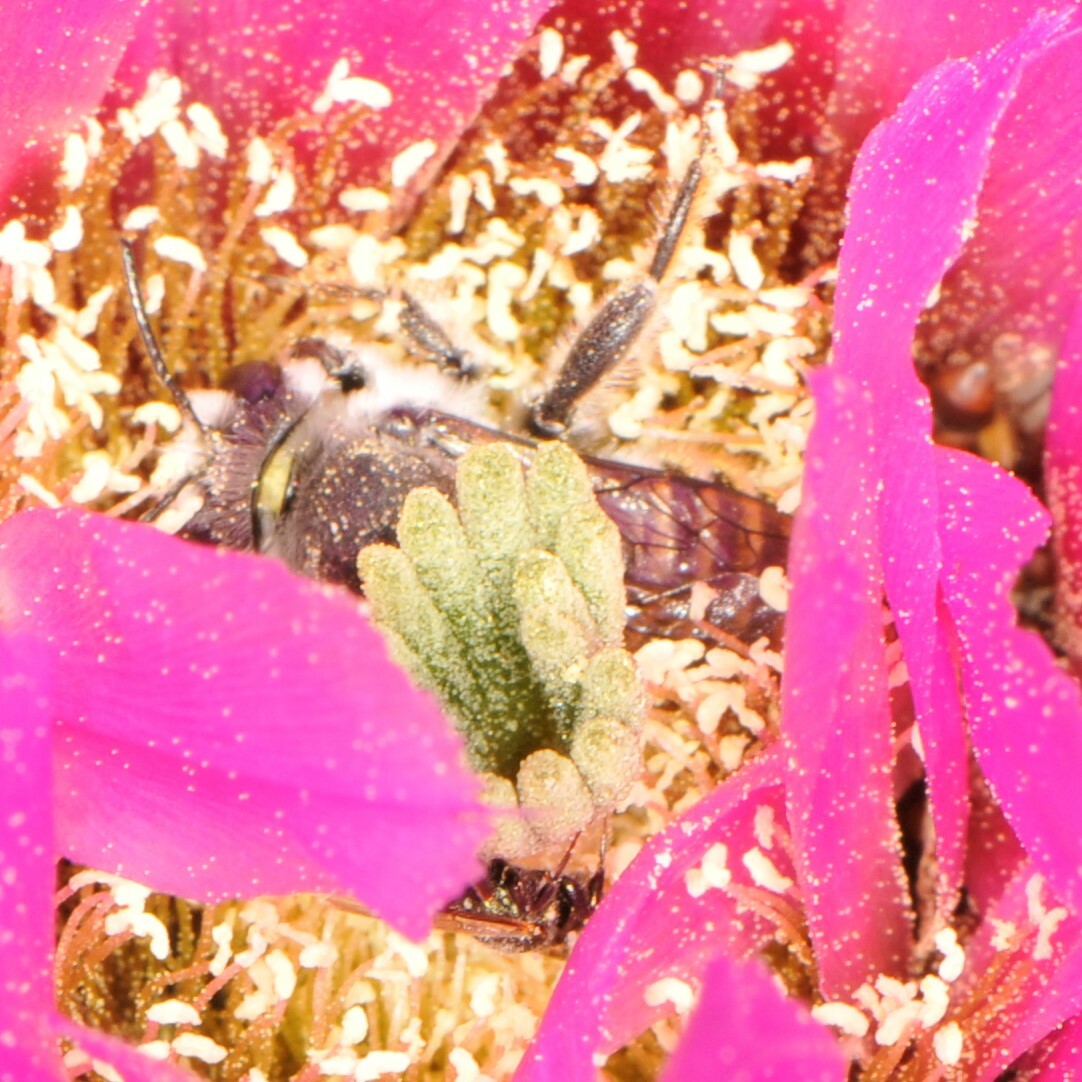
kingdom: Animalia
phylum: Arthropoda
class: Insecta
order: Hymenoptera
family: Apidae
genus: Zadontomerus
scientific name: Zadontomerus
